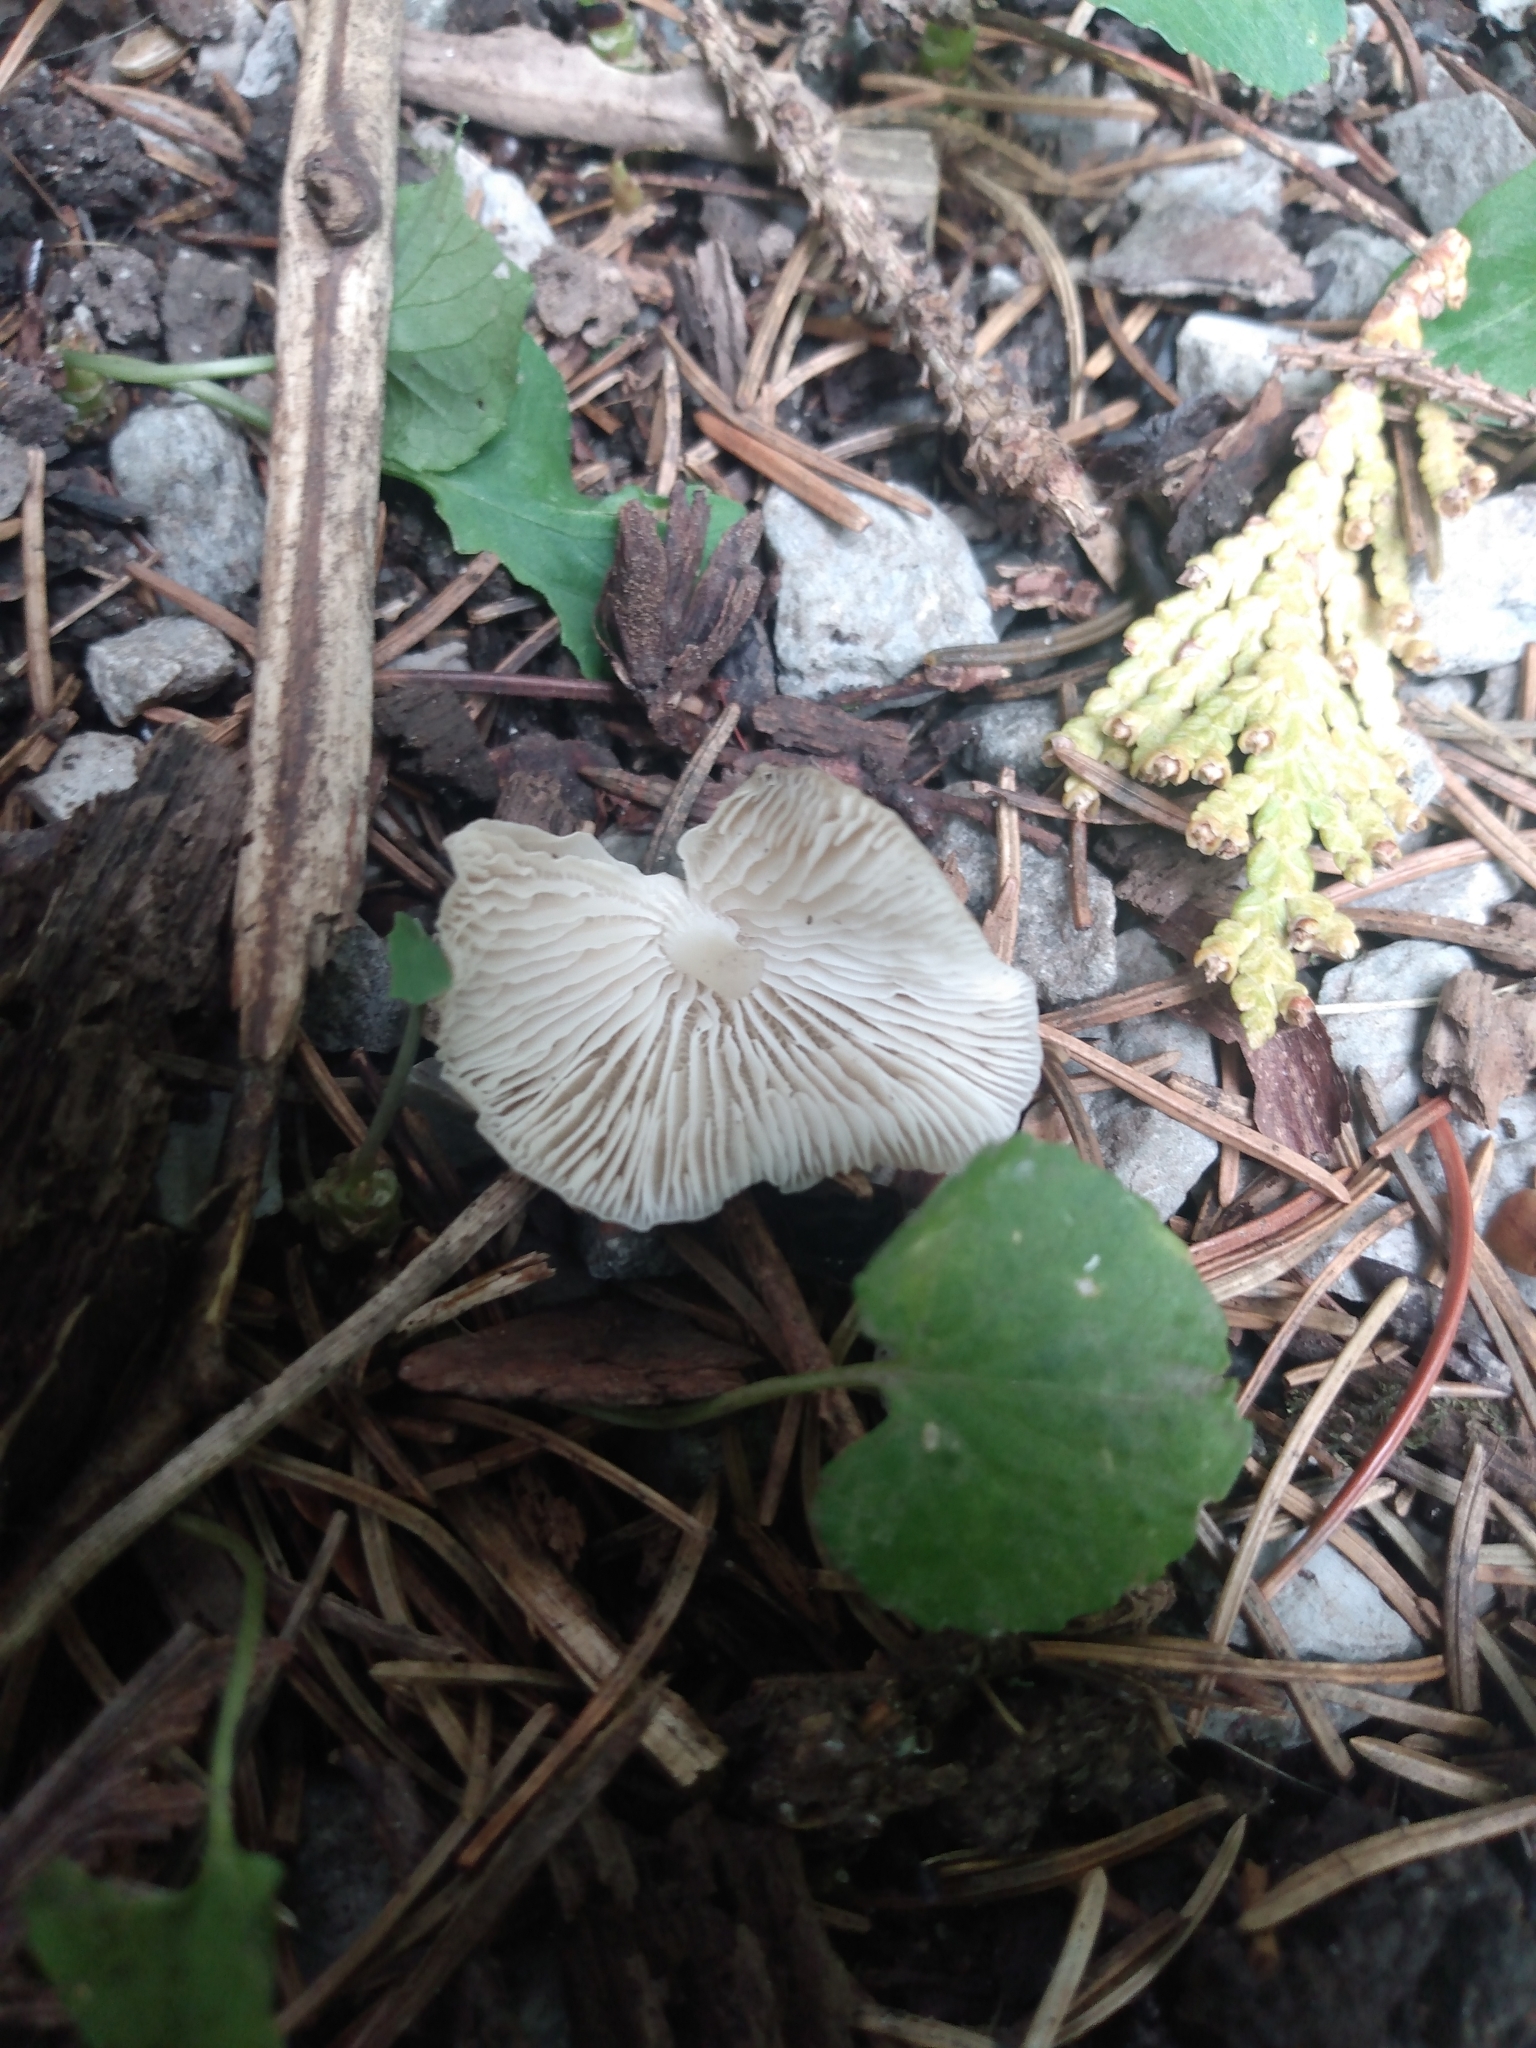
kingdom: Fungi
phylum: Basidiomycota
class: Agaricomycetes
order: Agaricales
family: Mycenaceae
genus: Mycena
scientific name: Mycena galericulata
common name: Bonnet mycena
